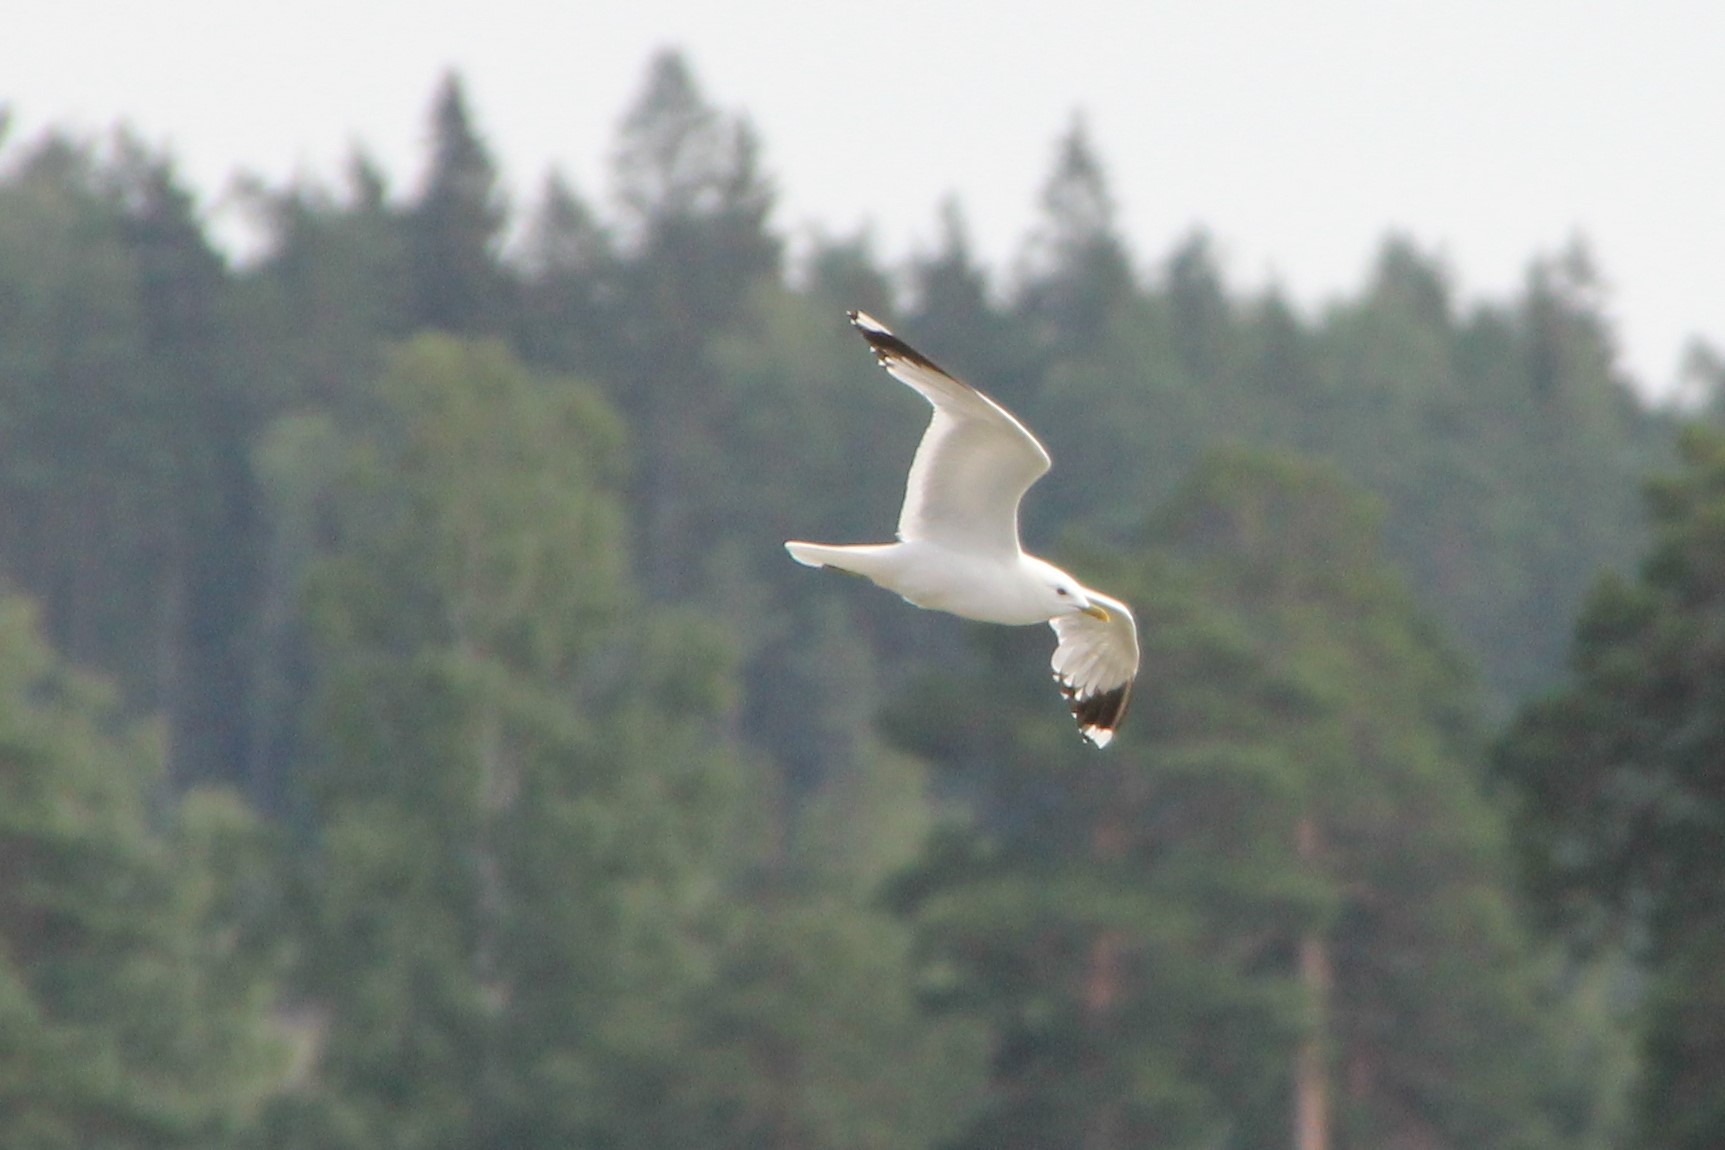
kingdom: Animalia
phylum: Chordata
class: Aves
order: Charadriiformes
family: Laridae
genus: Larus
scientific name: Larus canus
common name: Mew gull
